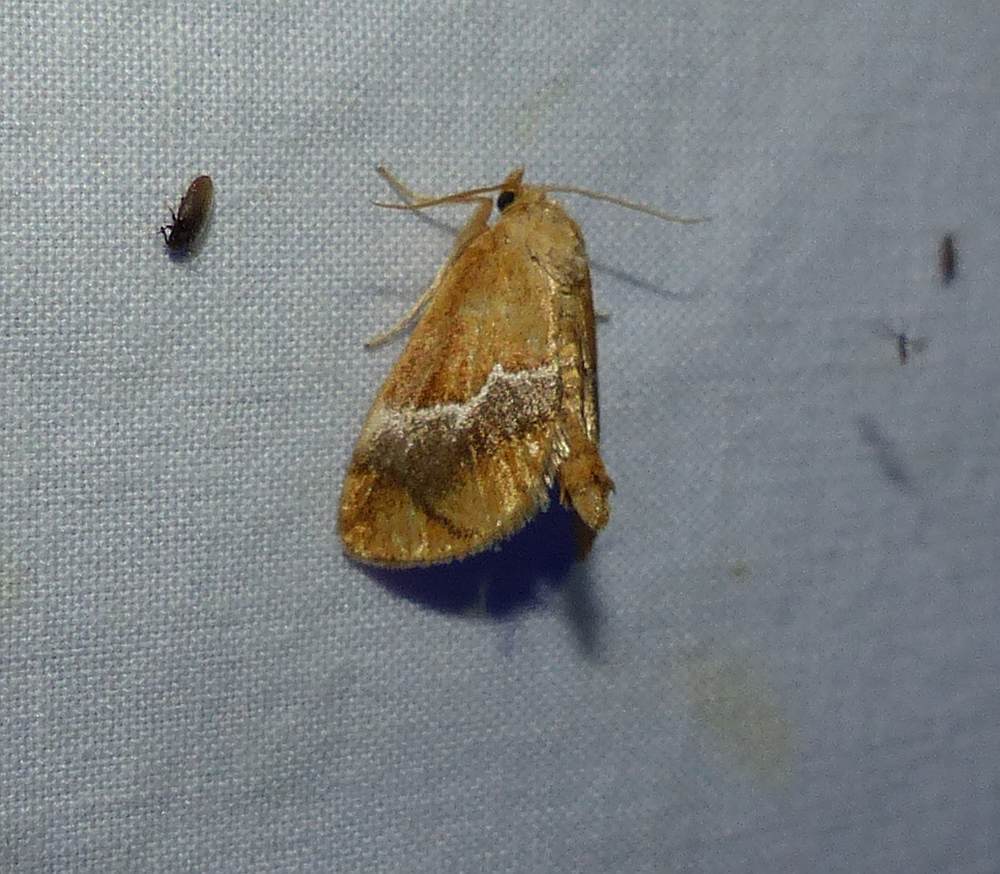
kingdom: Animalia
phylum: Arthropoda
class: Insecta
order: Lepidoptera
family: Limacodidae
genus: Lithacodes
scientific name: Lithacodes fasciola
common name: Yellow-shouldered slug moth
